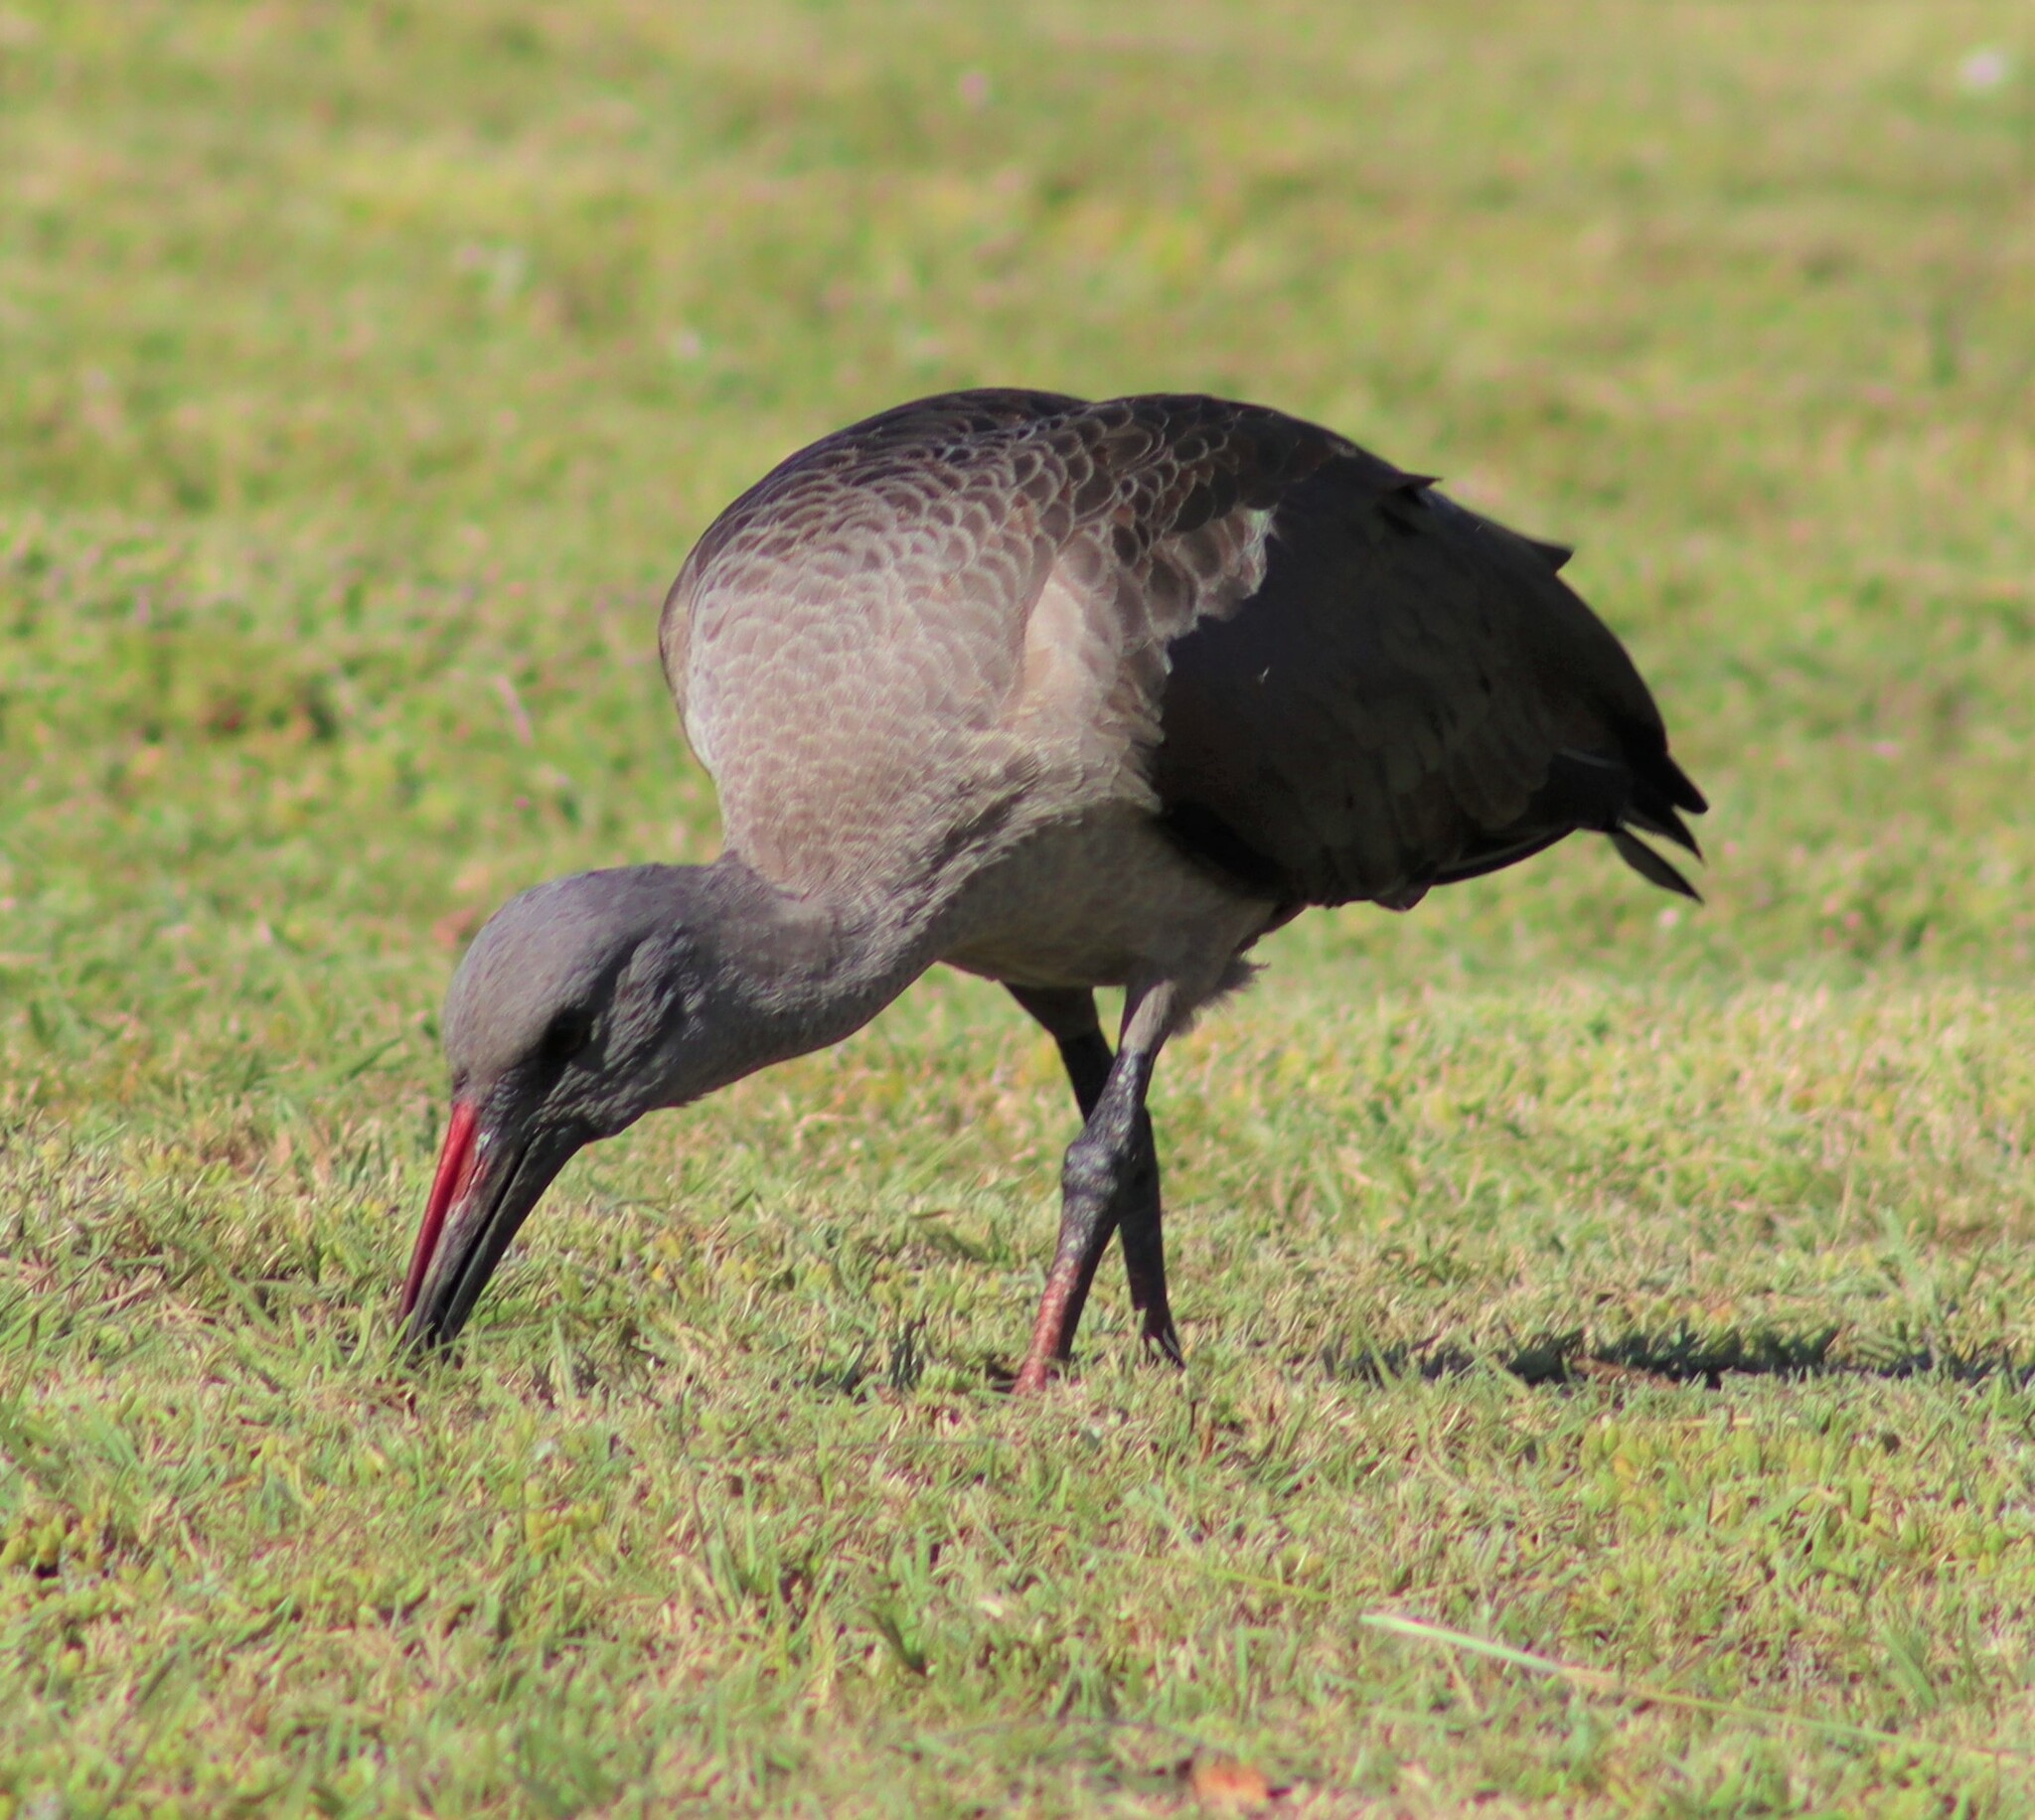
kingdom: Animalia
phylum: Chordata
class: Aves
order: Pelecaniformes
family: Threskiornithidae
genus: Bostrychia
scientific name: Bostrychia hagedash
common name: Hadada ibis
